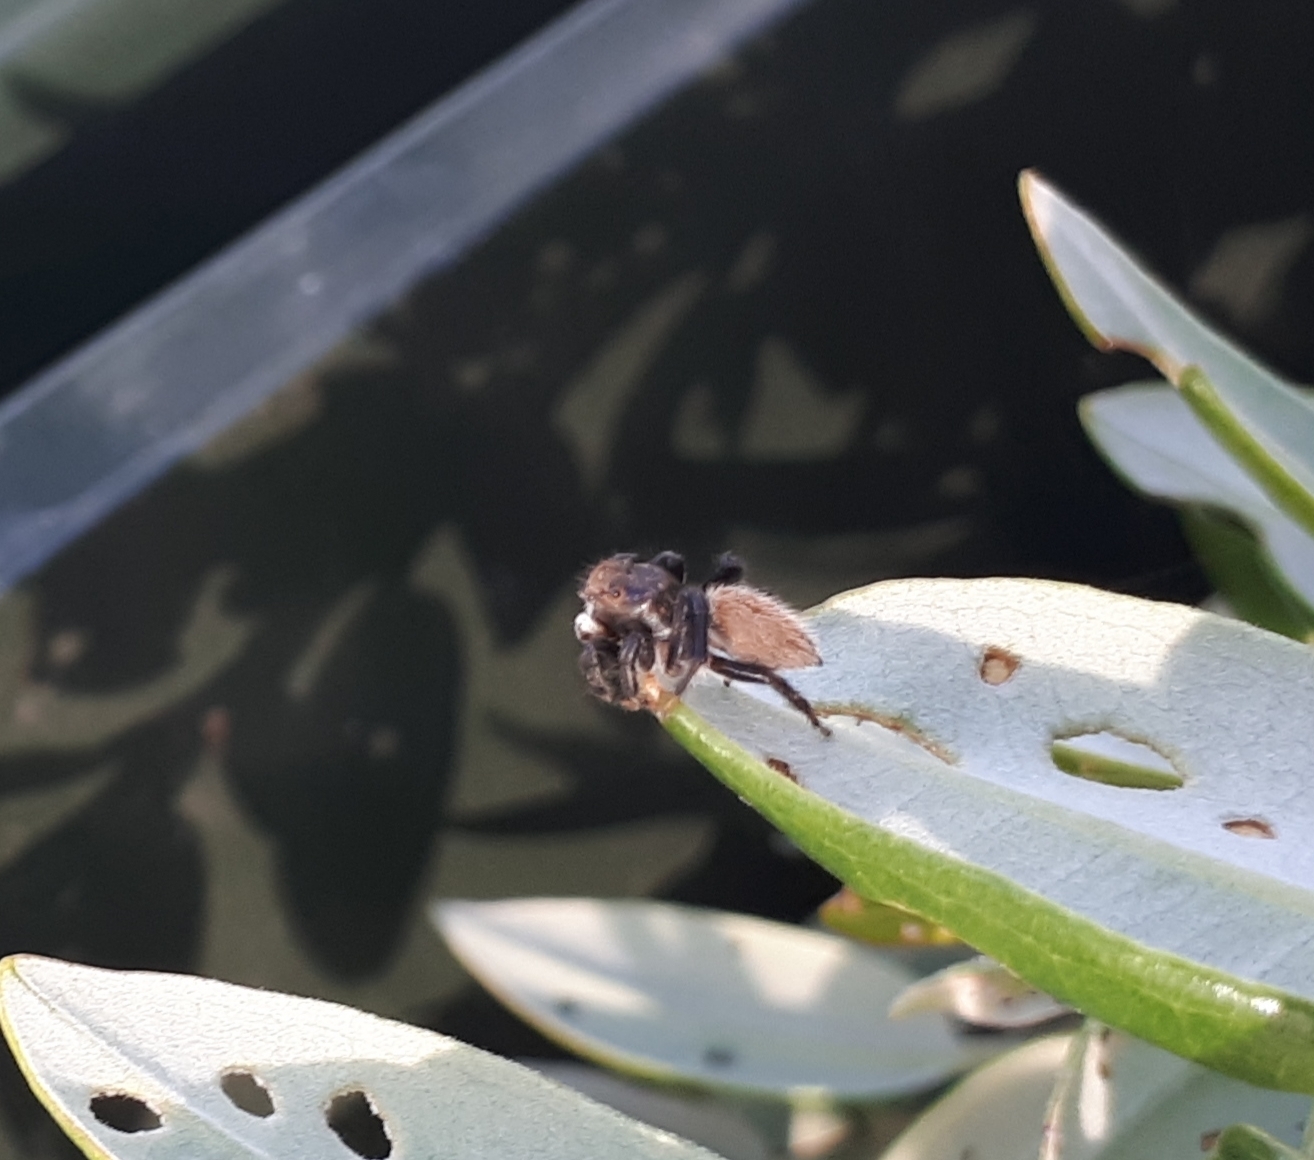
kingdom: Animalia
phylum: Arthropoda
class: Arachnida
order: Araneae
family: Salticidae
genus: Maratus
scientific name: Maratus griseus
